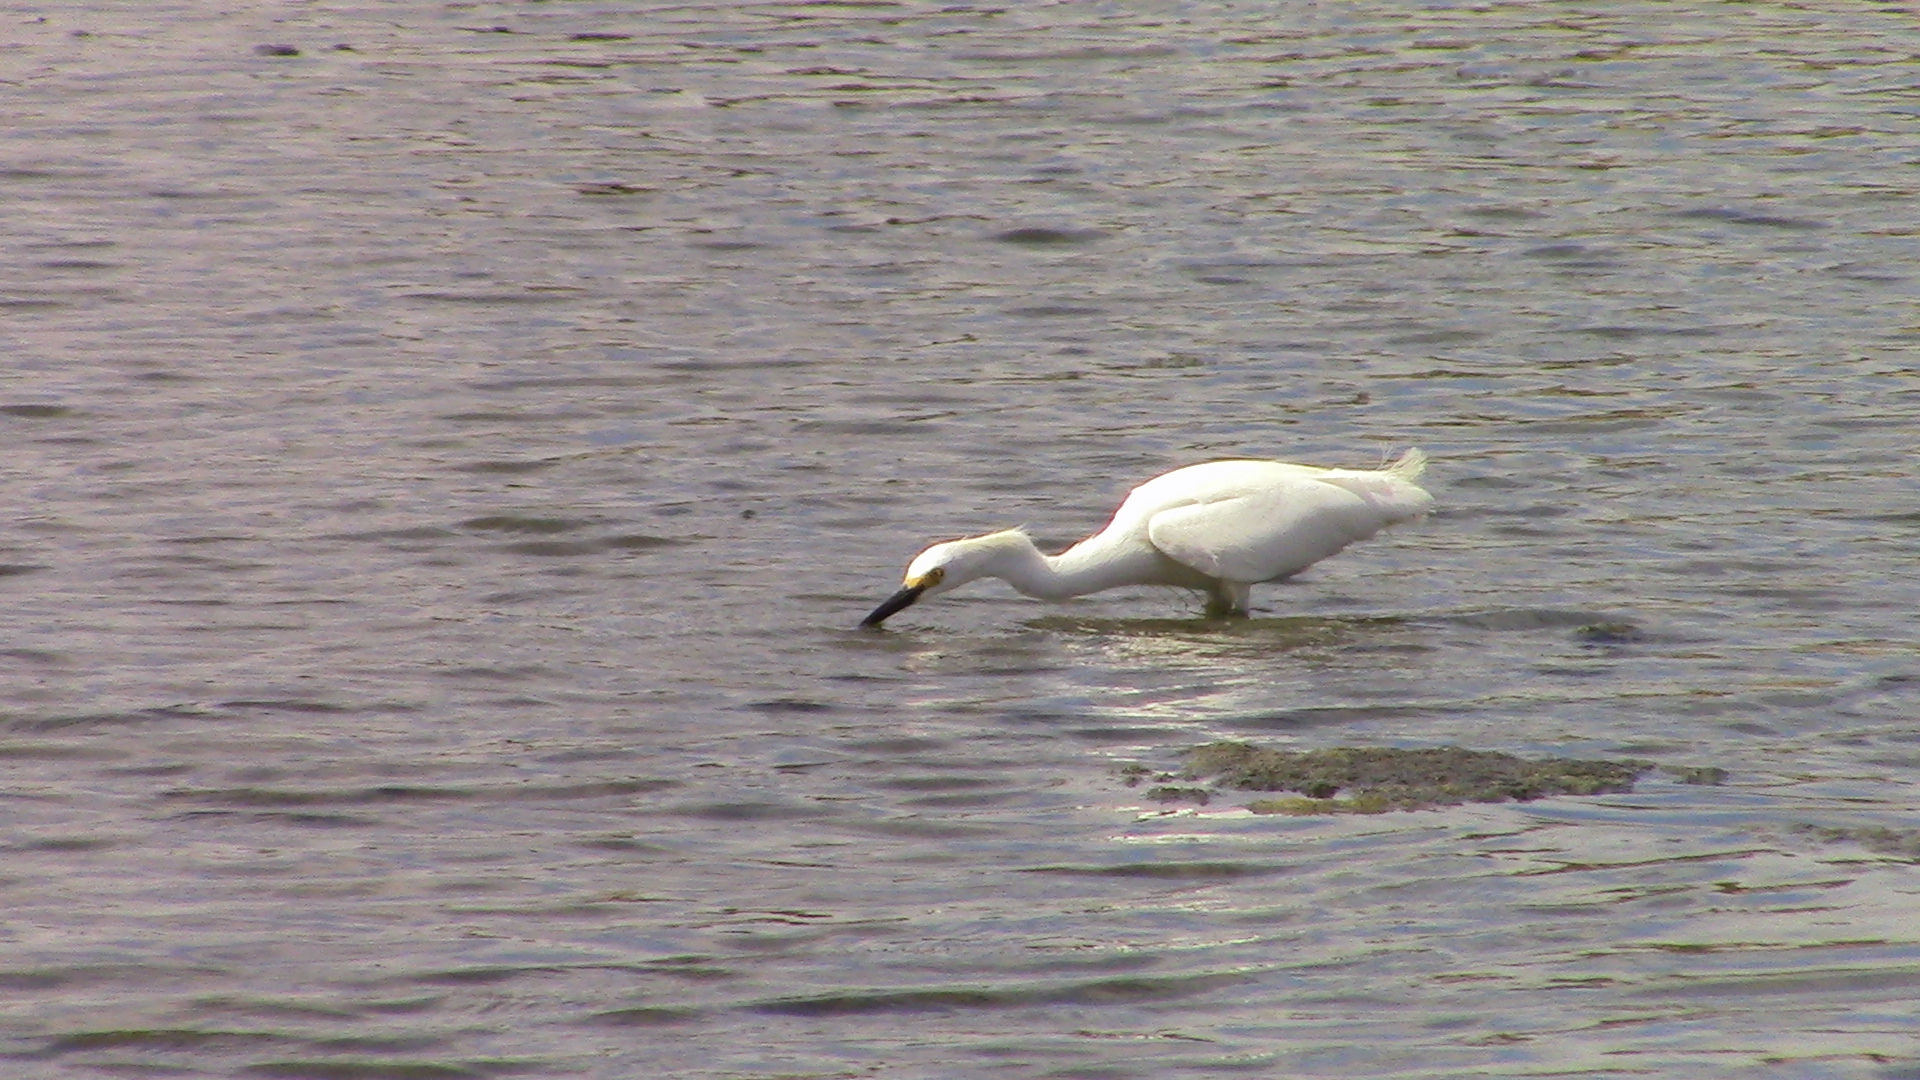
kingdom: Animalia
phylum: Chordata
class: Aves
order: Pelecaniformes
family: Ardeidae
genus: Egretta
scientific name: Egretta thula
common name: Snowy egret
